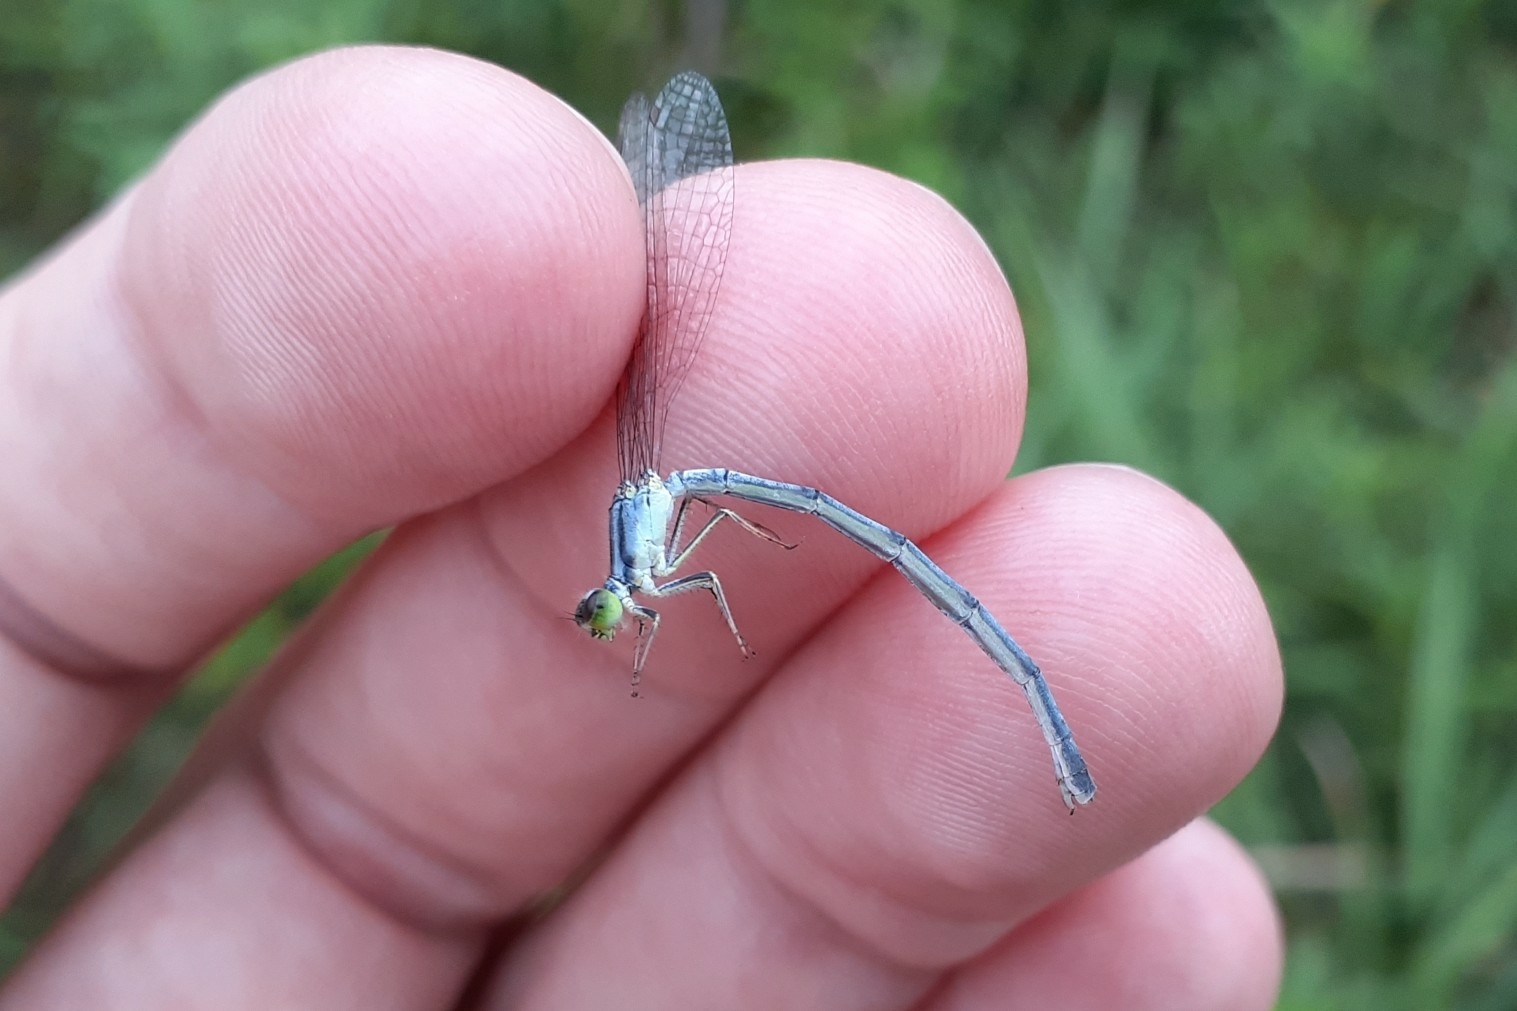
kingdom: Animalia
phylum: Arthropoda
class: Insecta
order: Odonata
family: Coenagrionidae
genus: Ischnura
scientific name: Ischnura verticalis
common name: Eastern forktail
